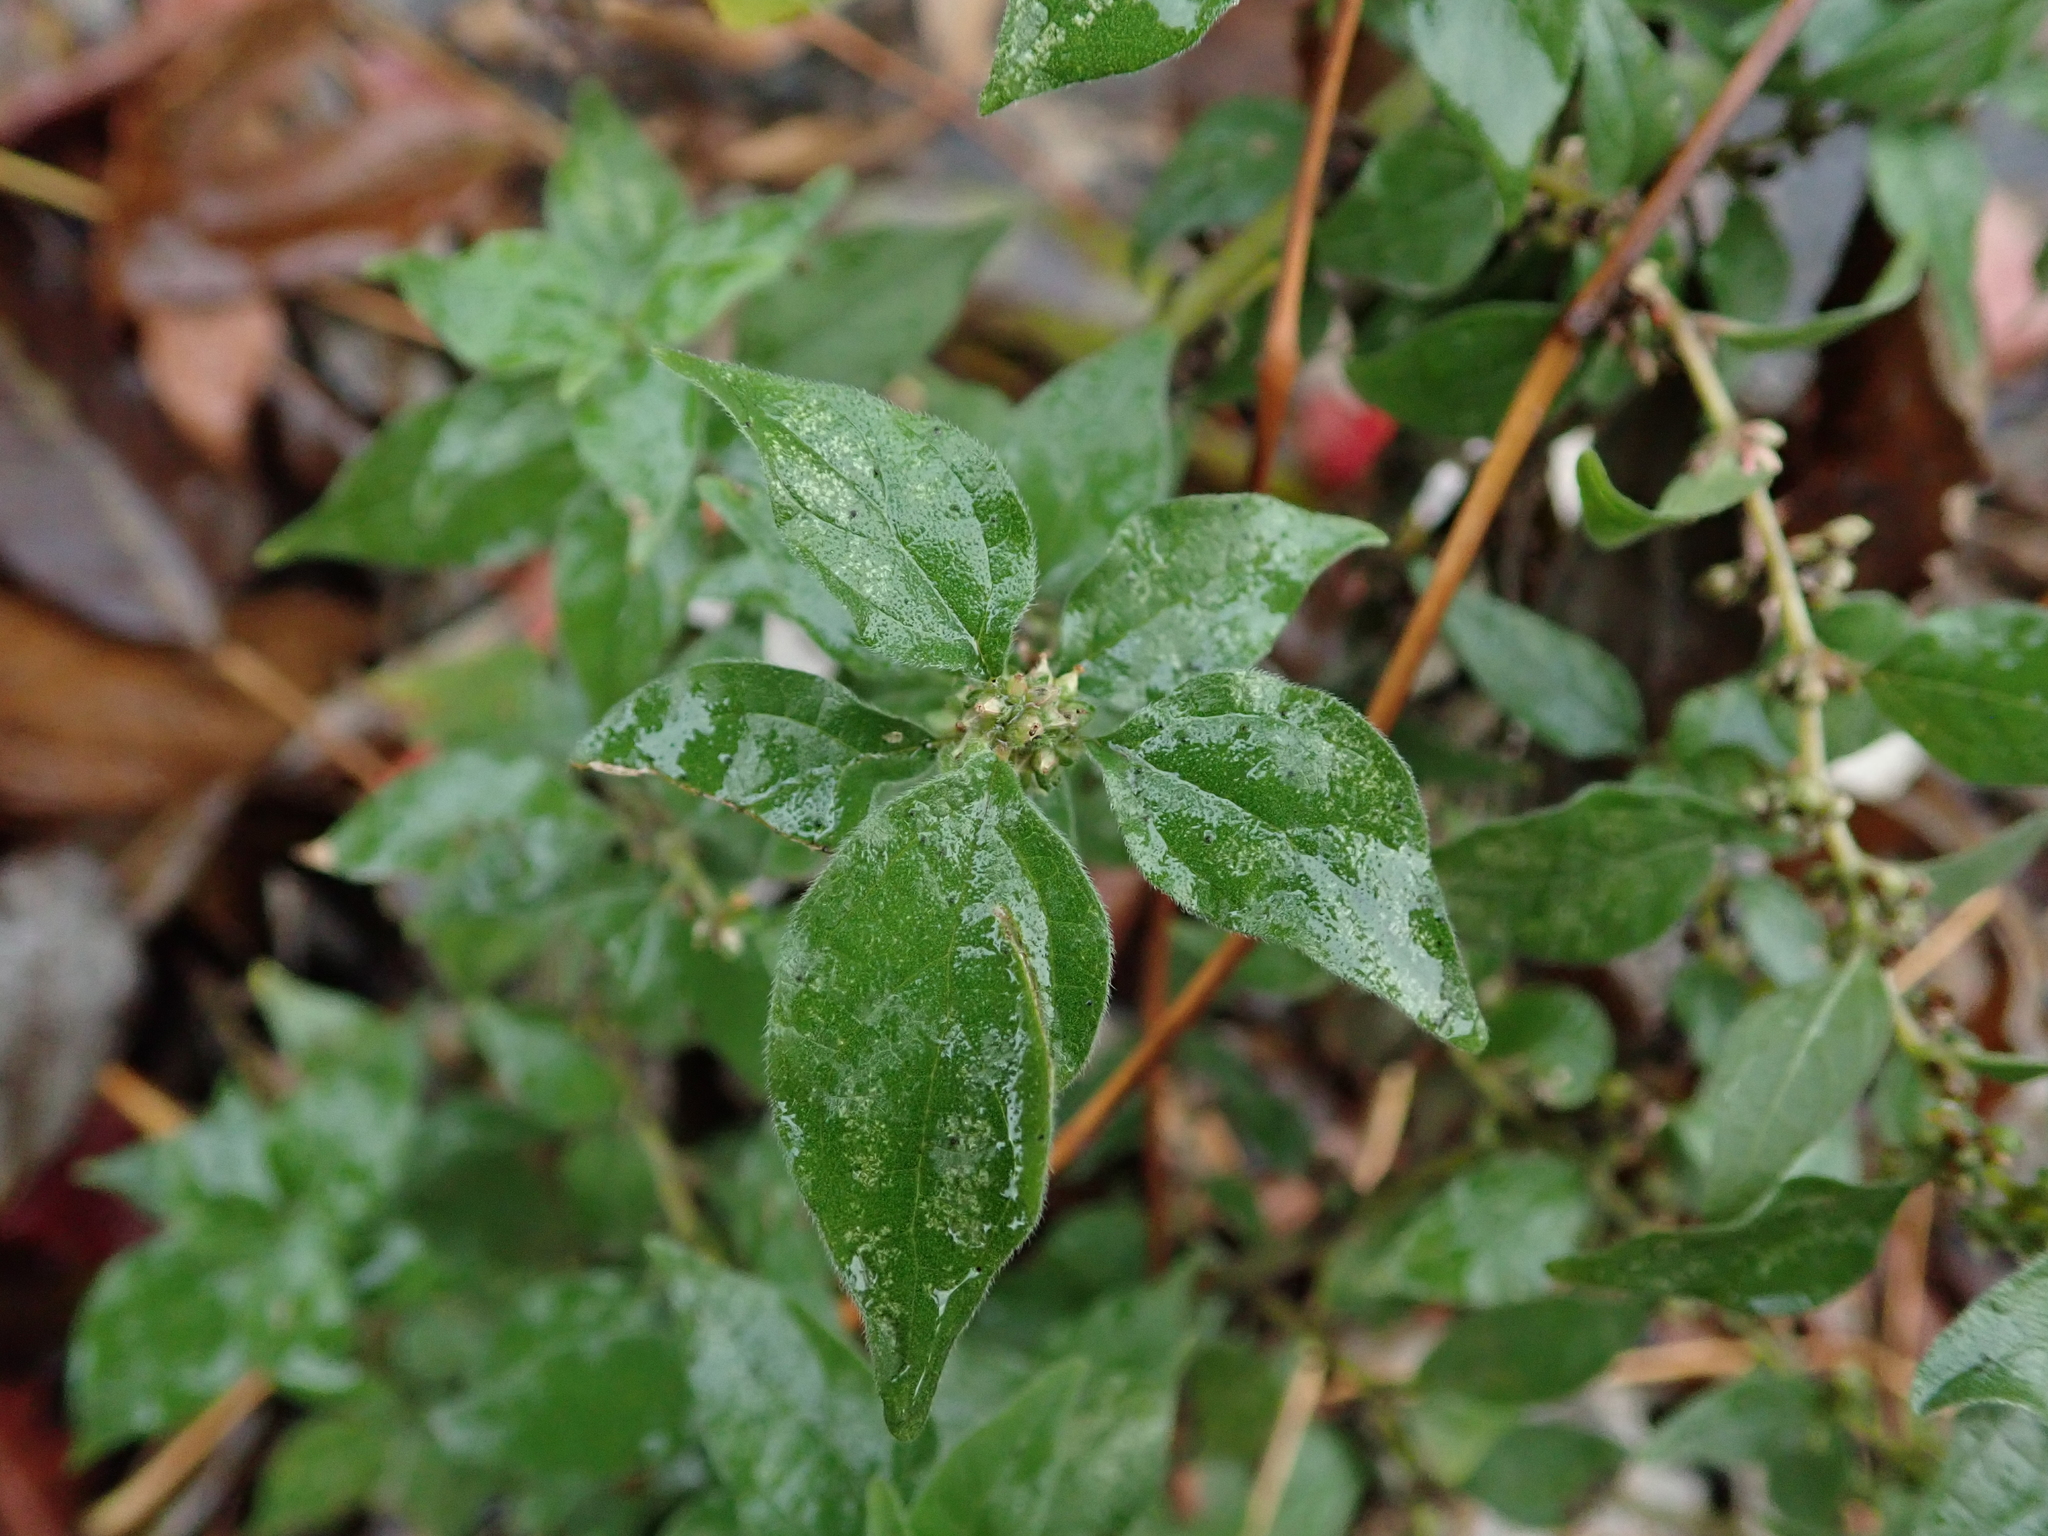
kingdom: Plantae
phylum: Tracheophyta
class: Magnoliopsida
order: Rosales
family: Urticaceae
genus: Parietaria
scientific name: Parietaria officinalis
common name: Eastern pellitory-of-the-wall
